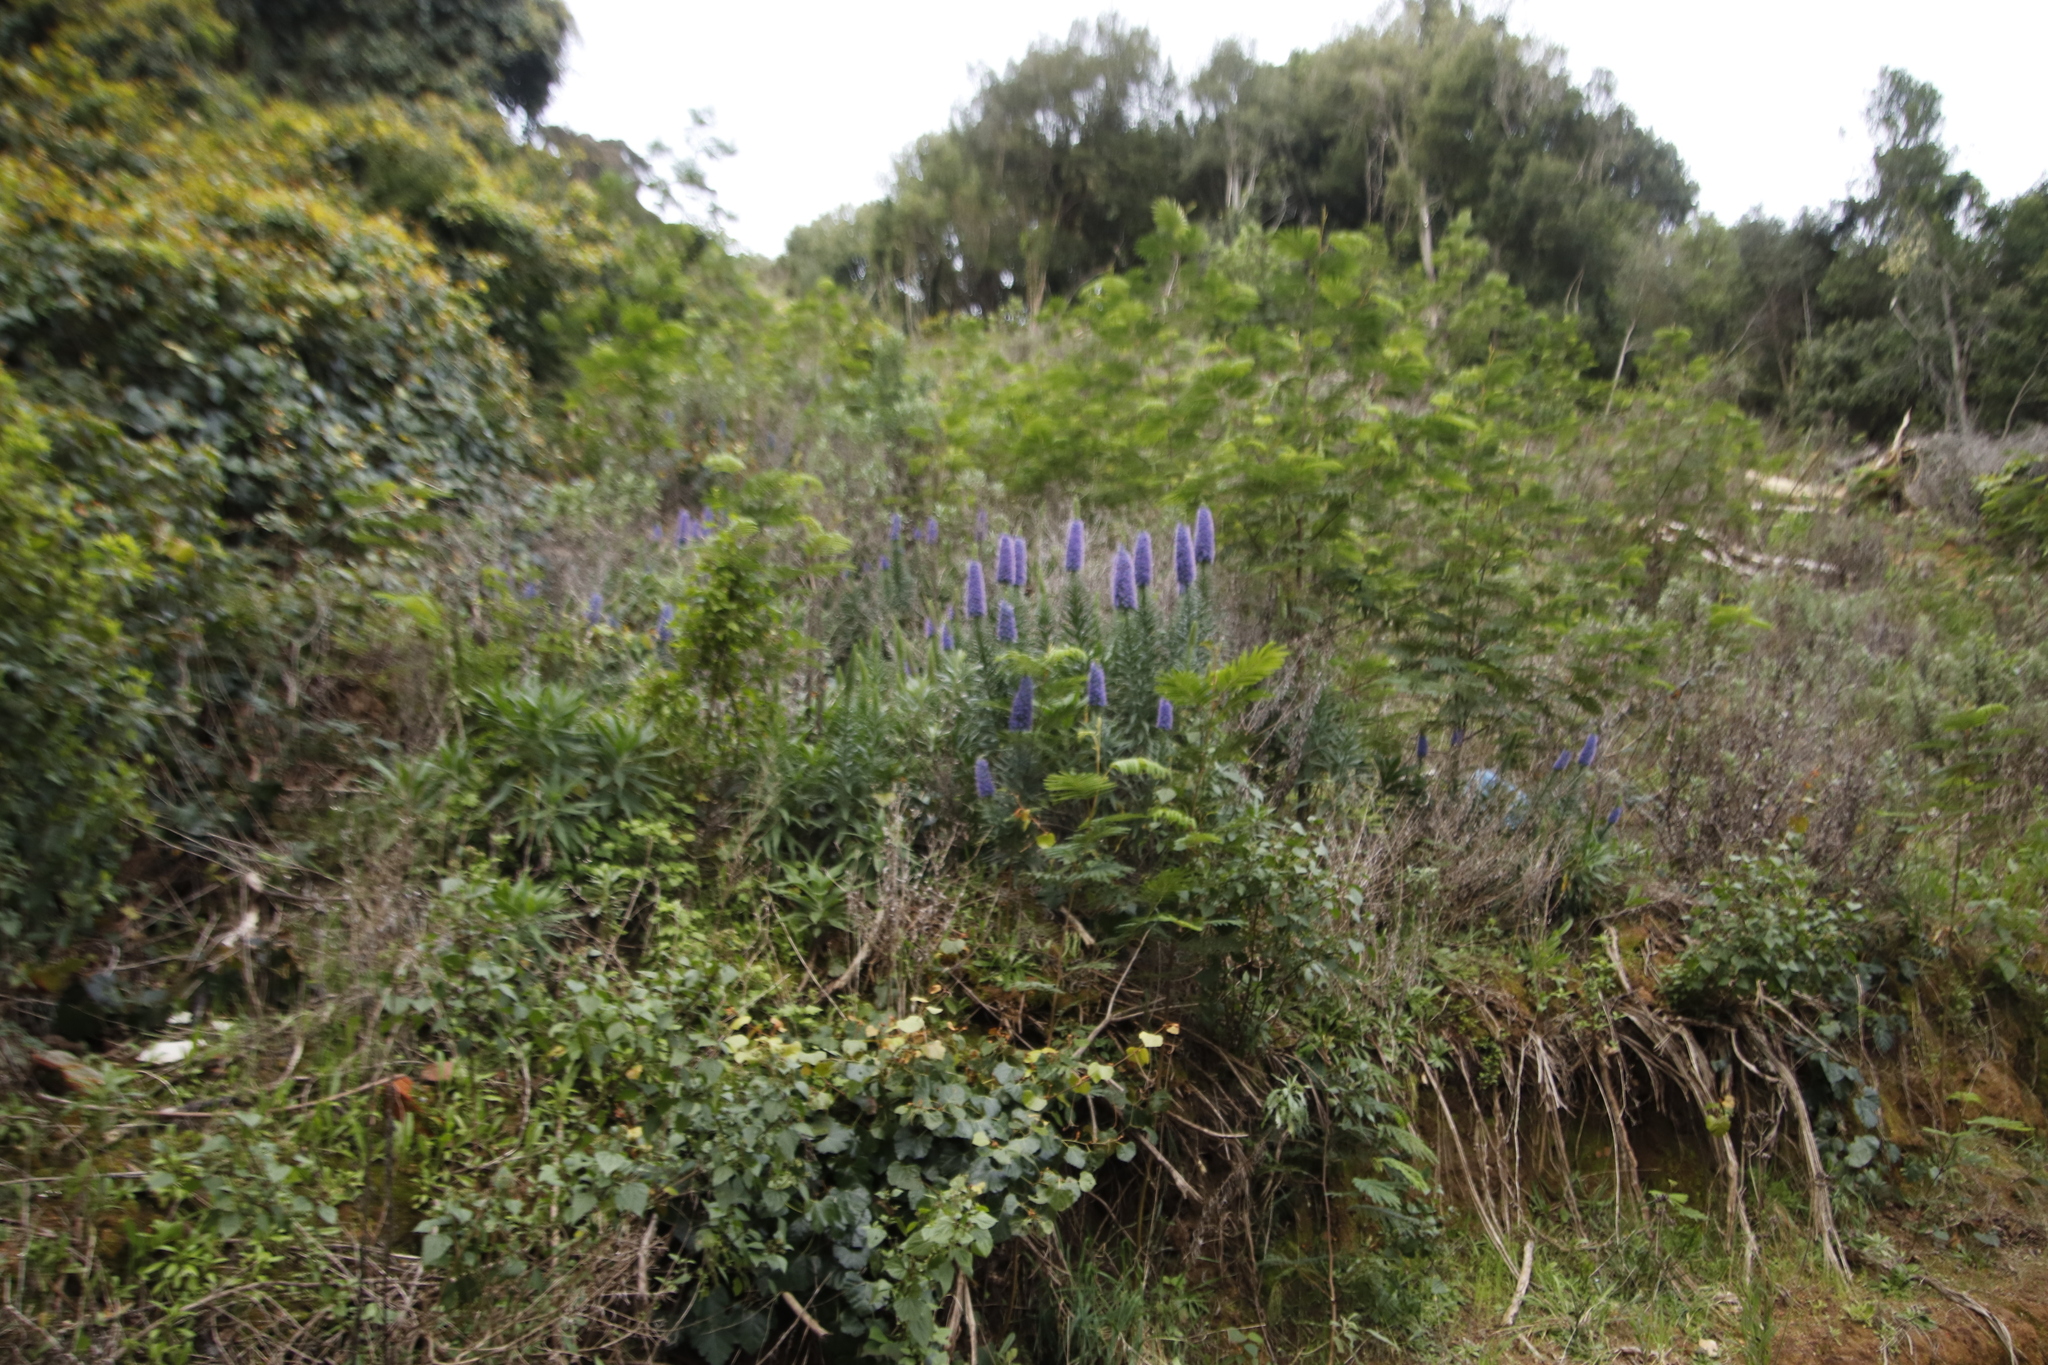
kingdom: Plantae
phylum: Tracheophyta
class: Magnoliopsida
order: Boraginales
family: Boraginaceae
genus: Echium
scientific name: Echium candicans
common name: Pride of madeira
